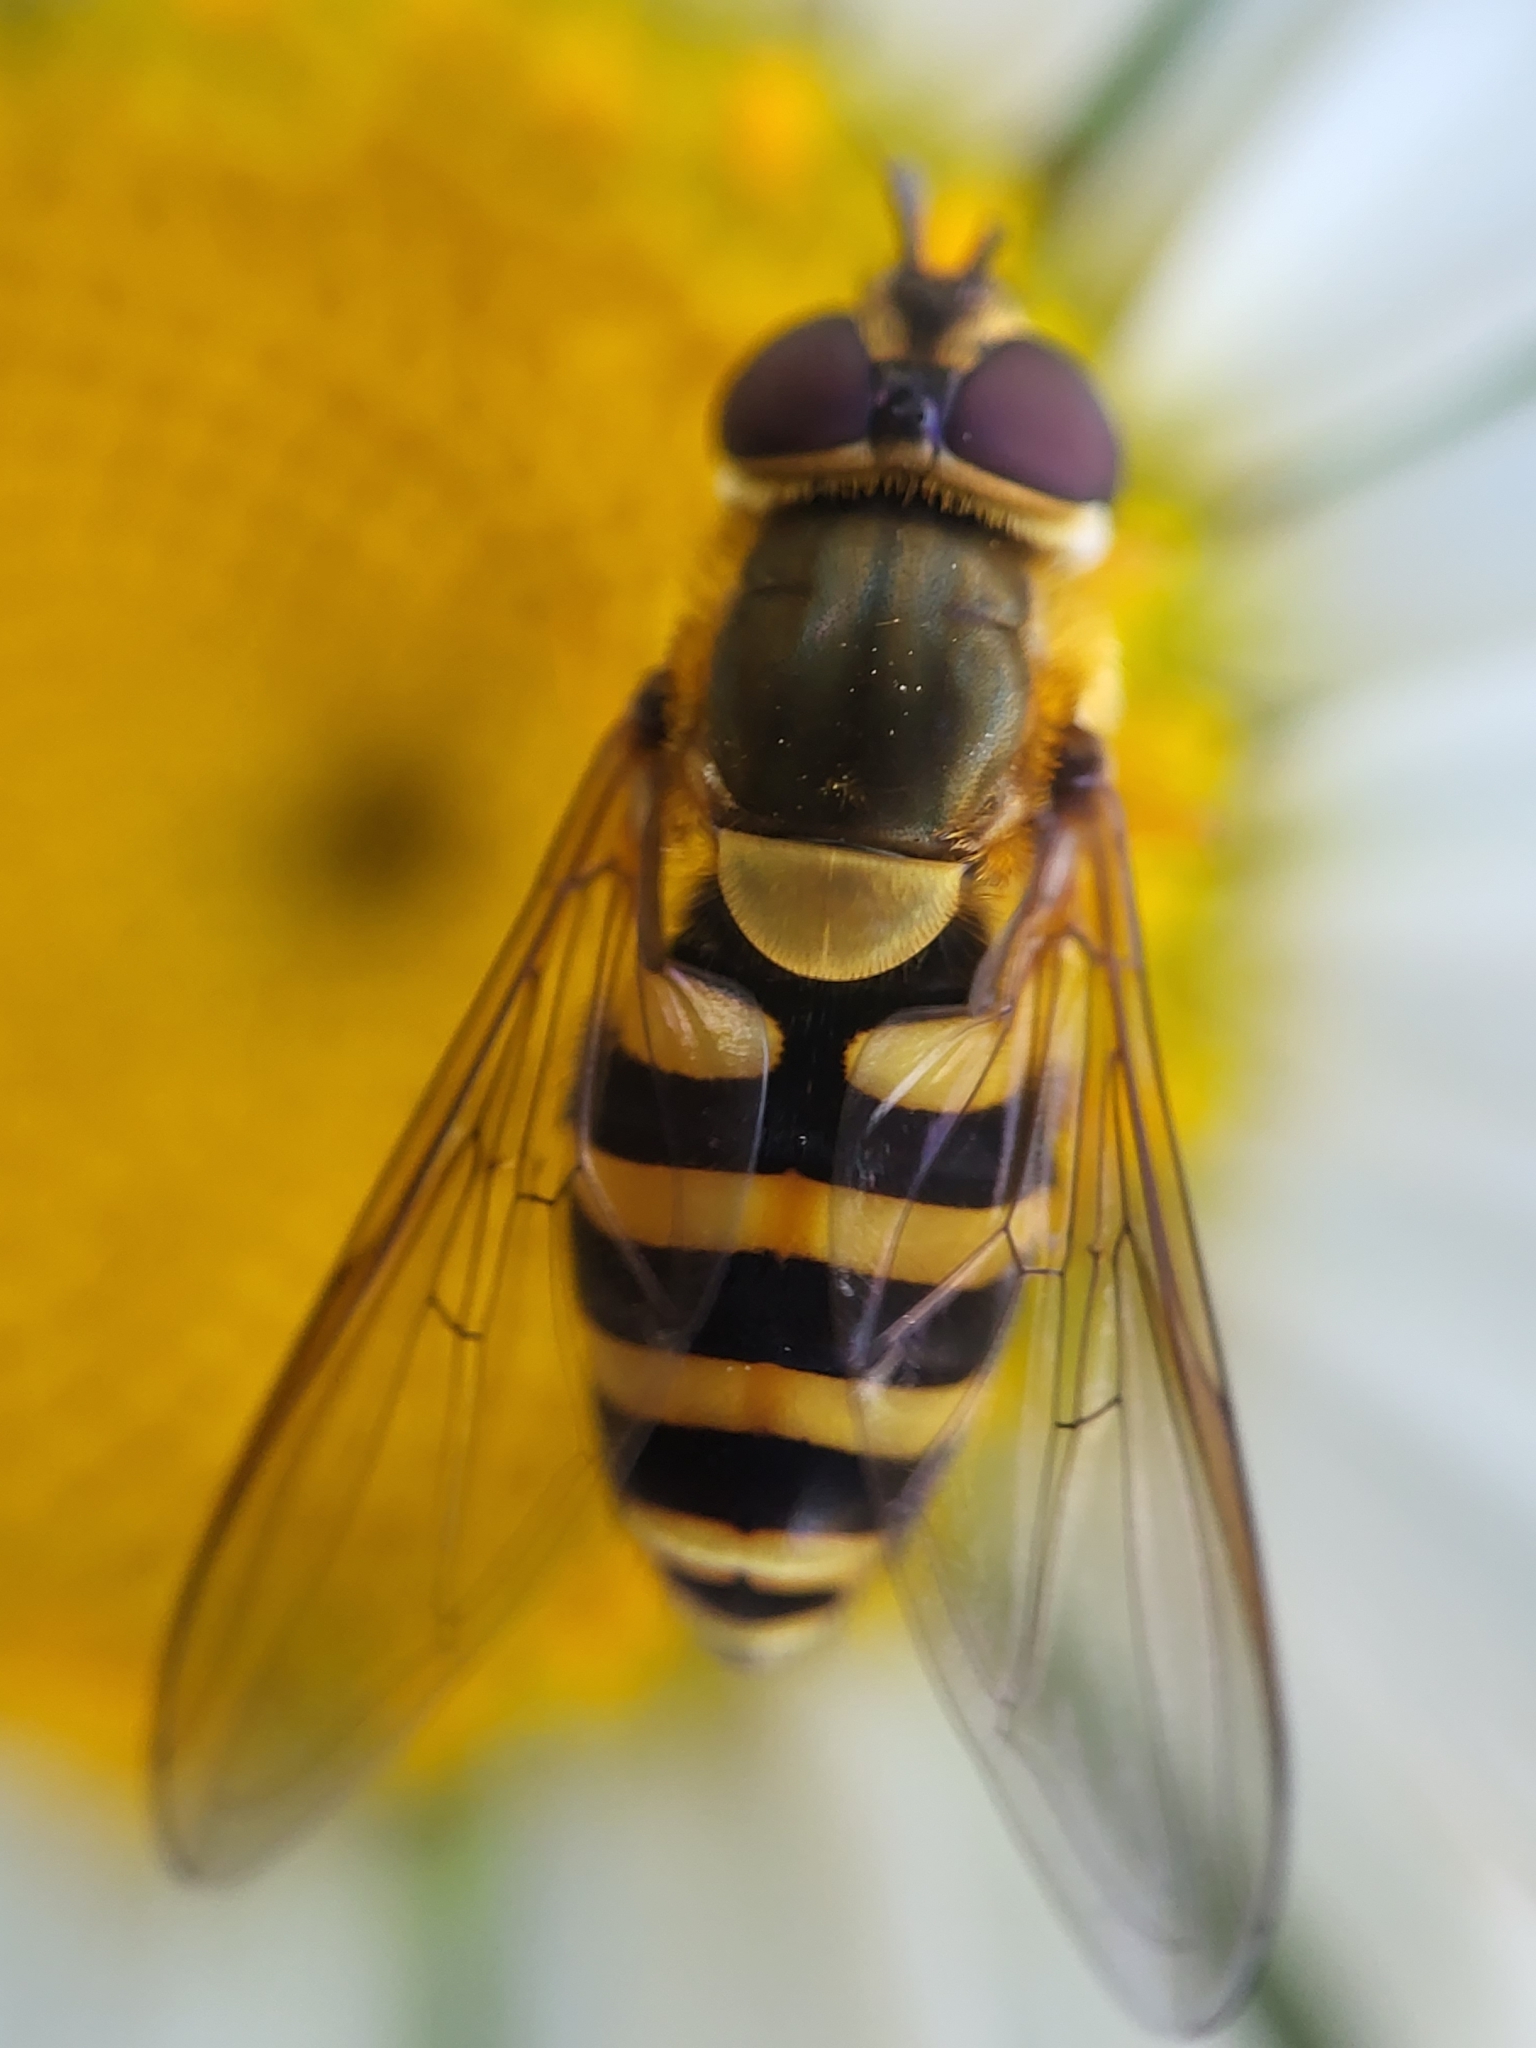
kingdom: Animalia
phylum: Arthropoda
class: Insecta
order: Diptera
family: Syrphidae
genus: Syrphus
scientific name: Syrphus rectus
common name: Yellow-legged flower fly
